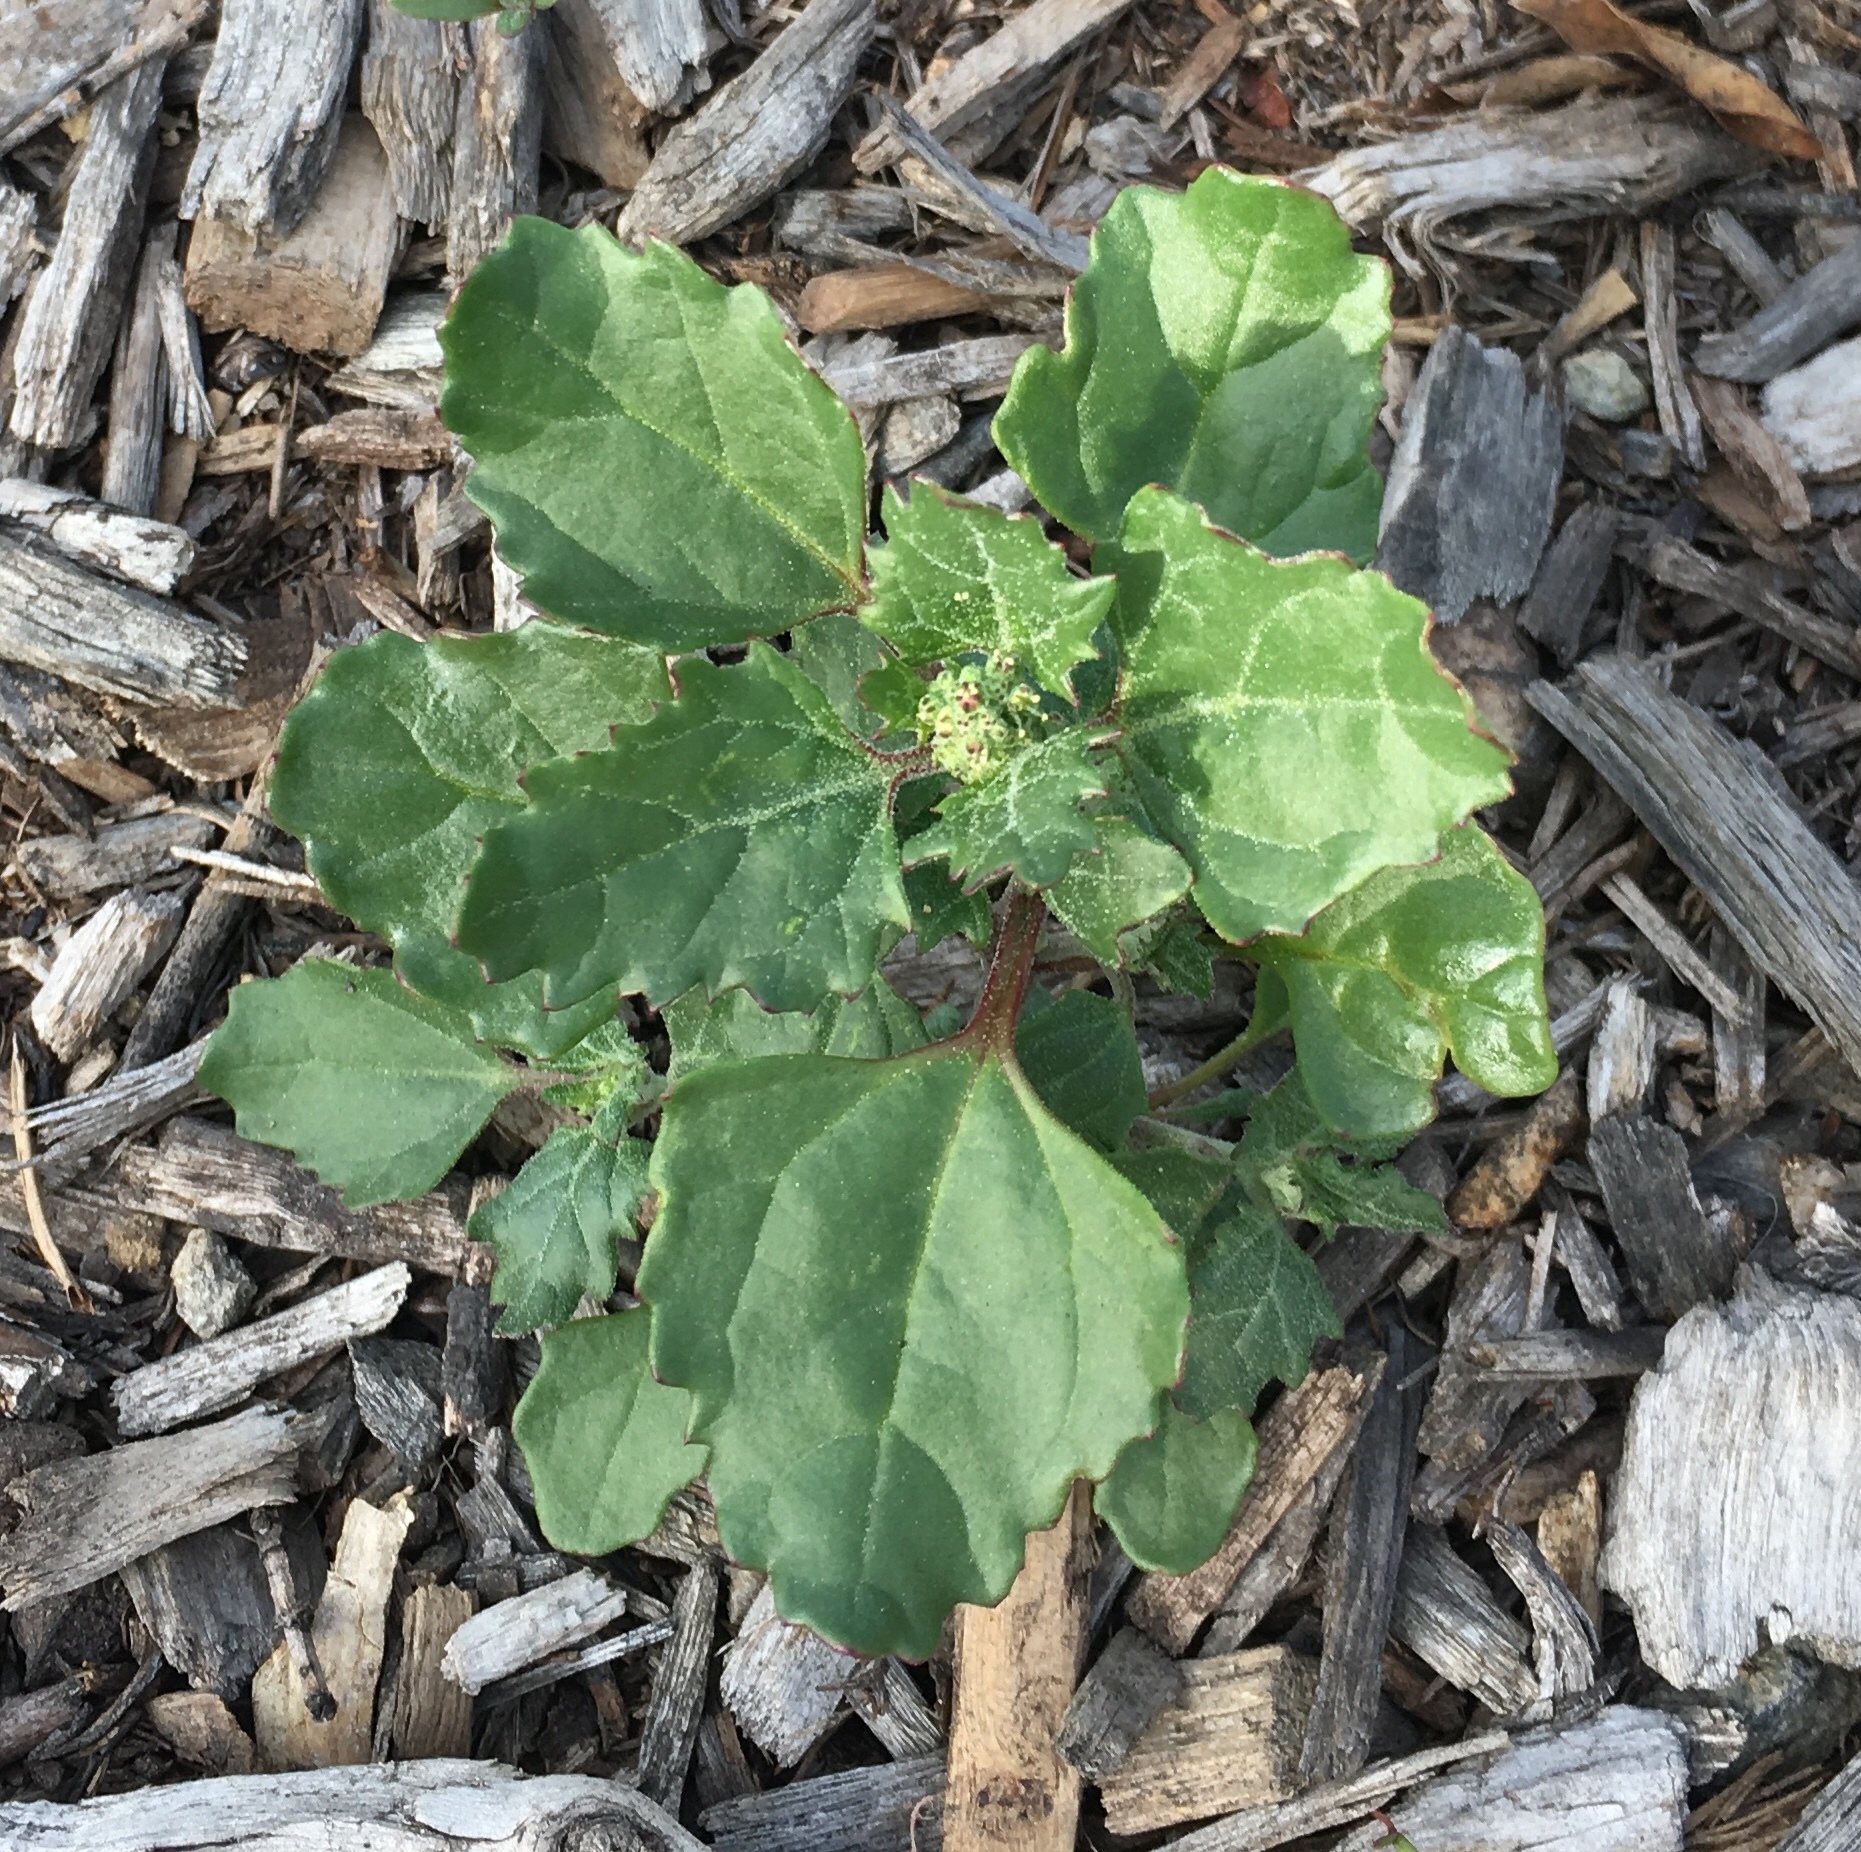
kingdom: Plantae
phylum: Tracheophyta
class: Magnoliopsida
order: Caryophyllales
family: Amaranthaceae
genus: Chenopodiastrum
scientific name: Chenopodiastrum murale
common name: Sowbane
